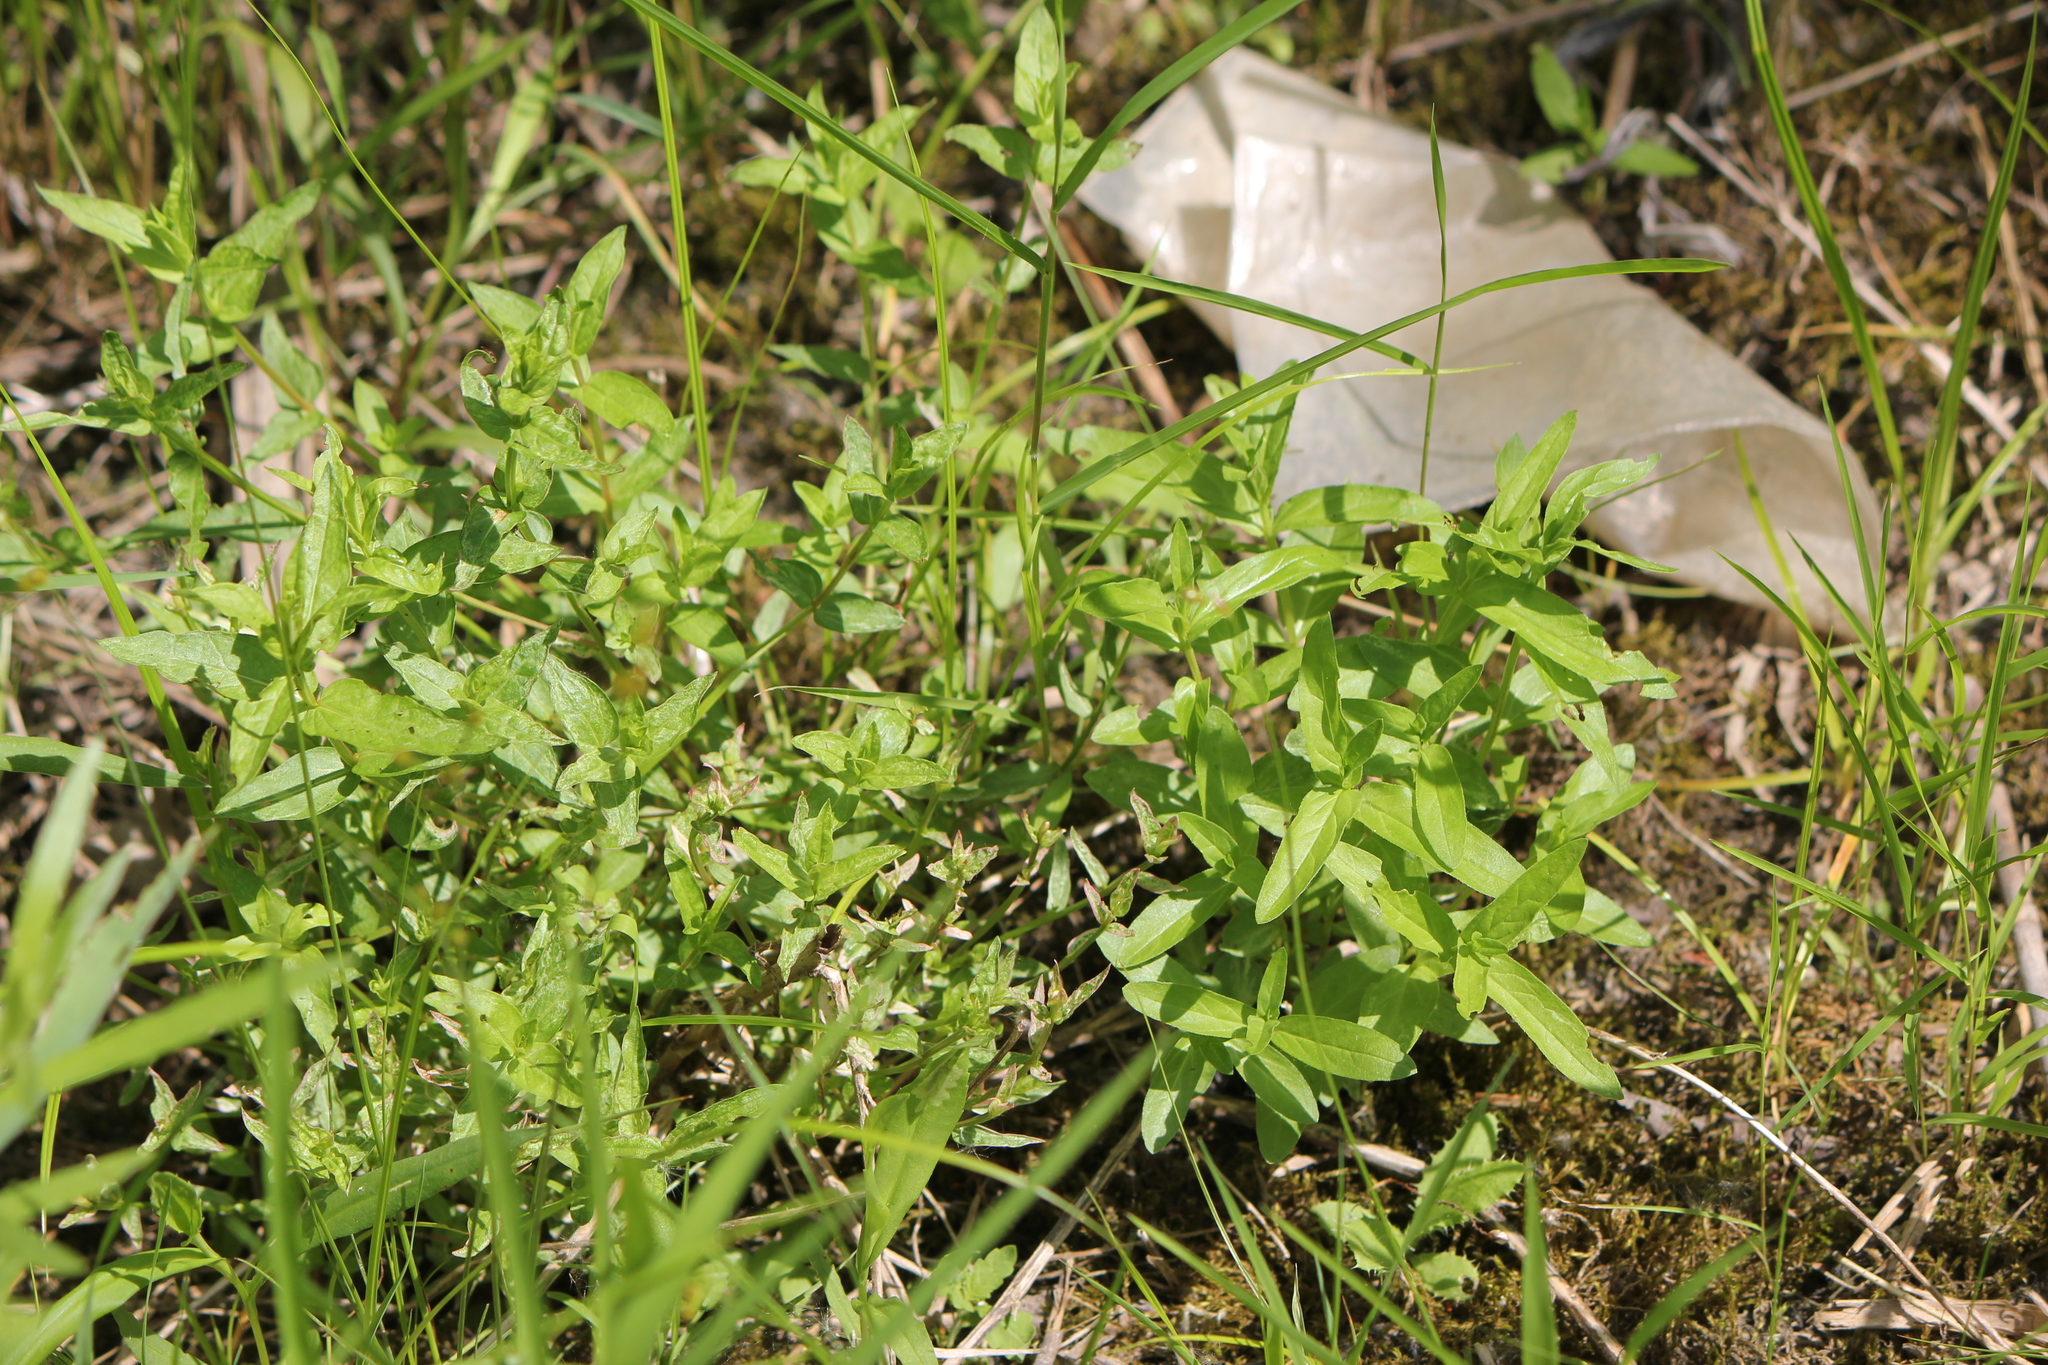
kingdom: Plantae
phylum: Tracheophyta
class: Magnoliopsida
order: Myrtales
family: Lythraceae
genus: Lythrum
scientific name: Lythrum salicaria
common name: Purple loosestrife
